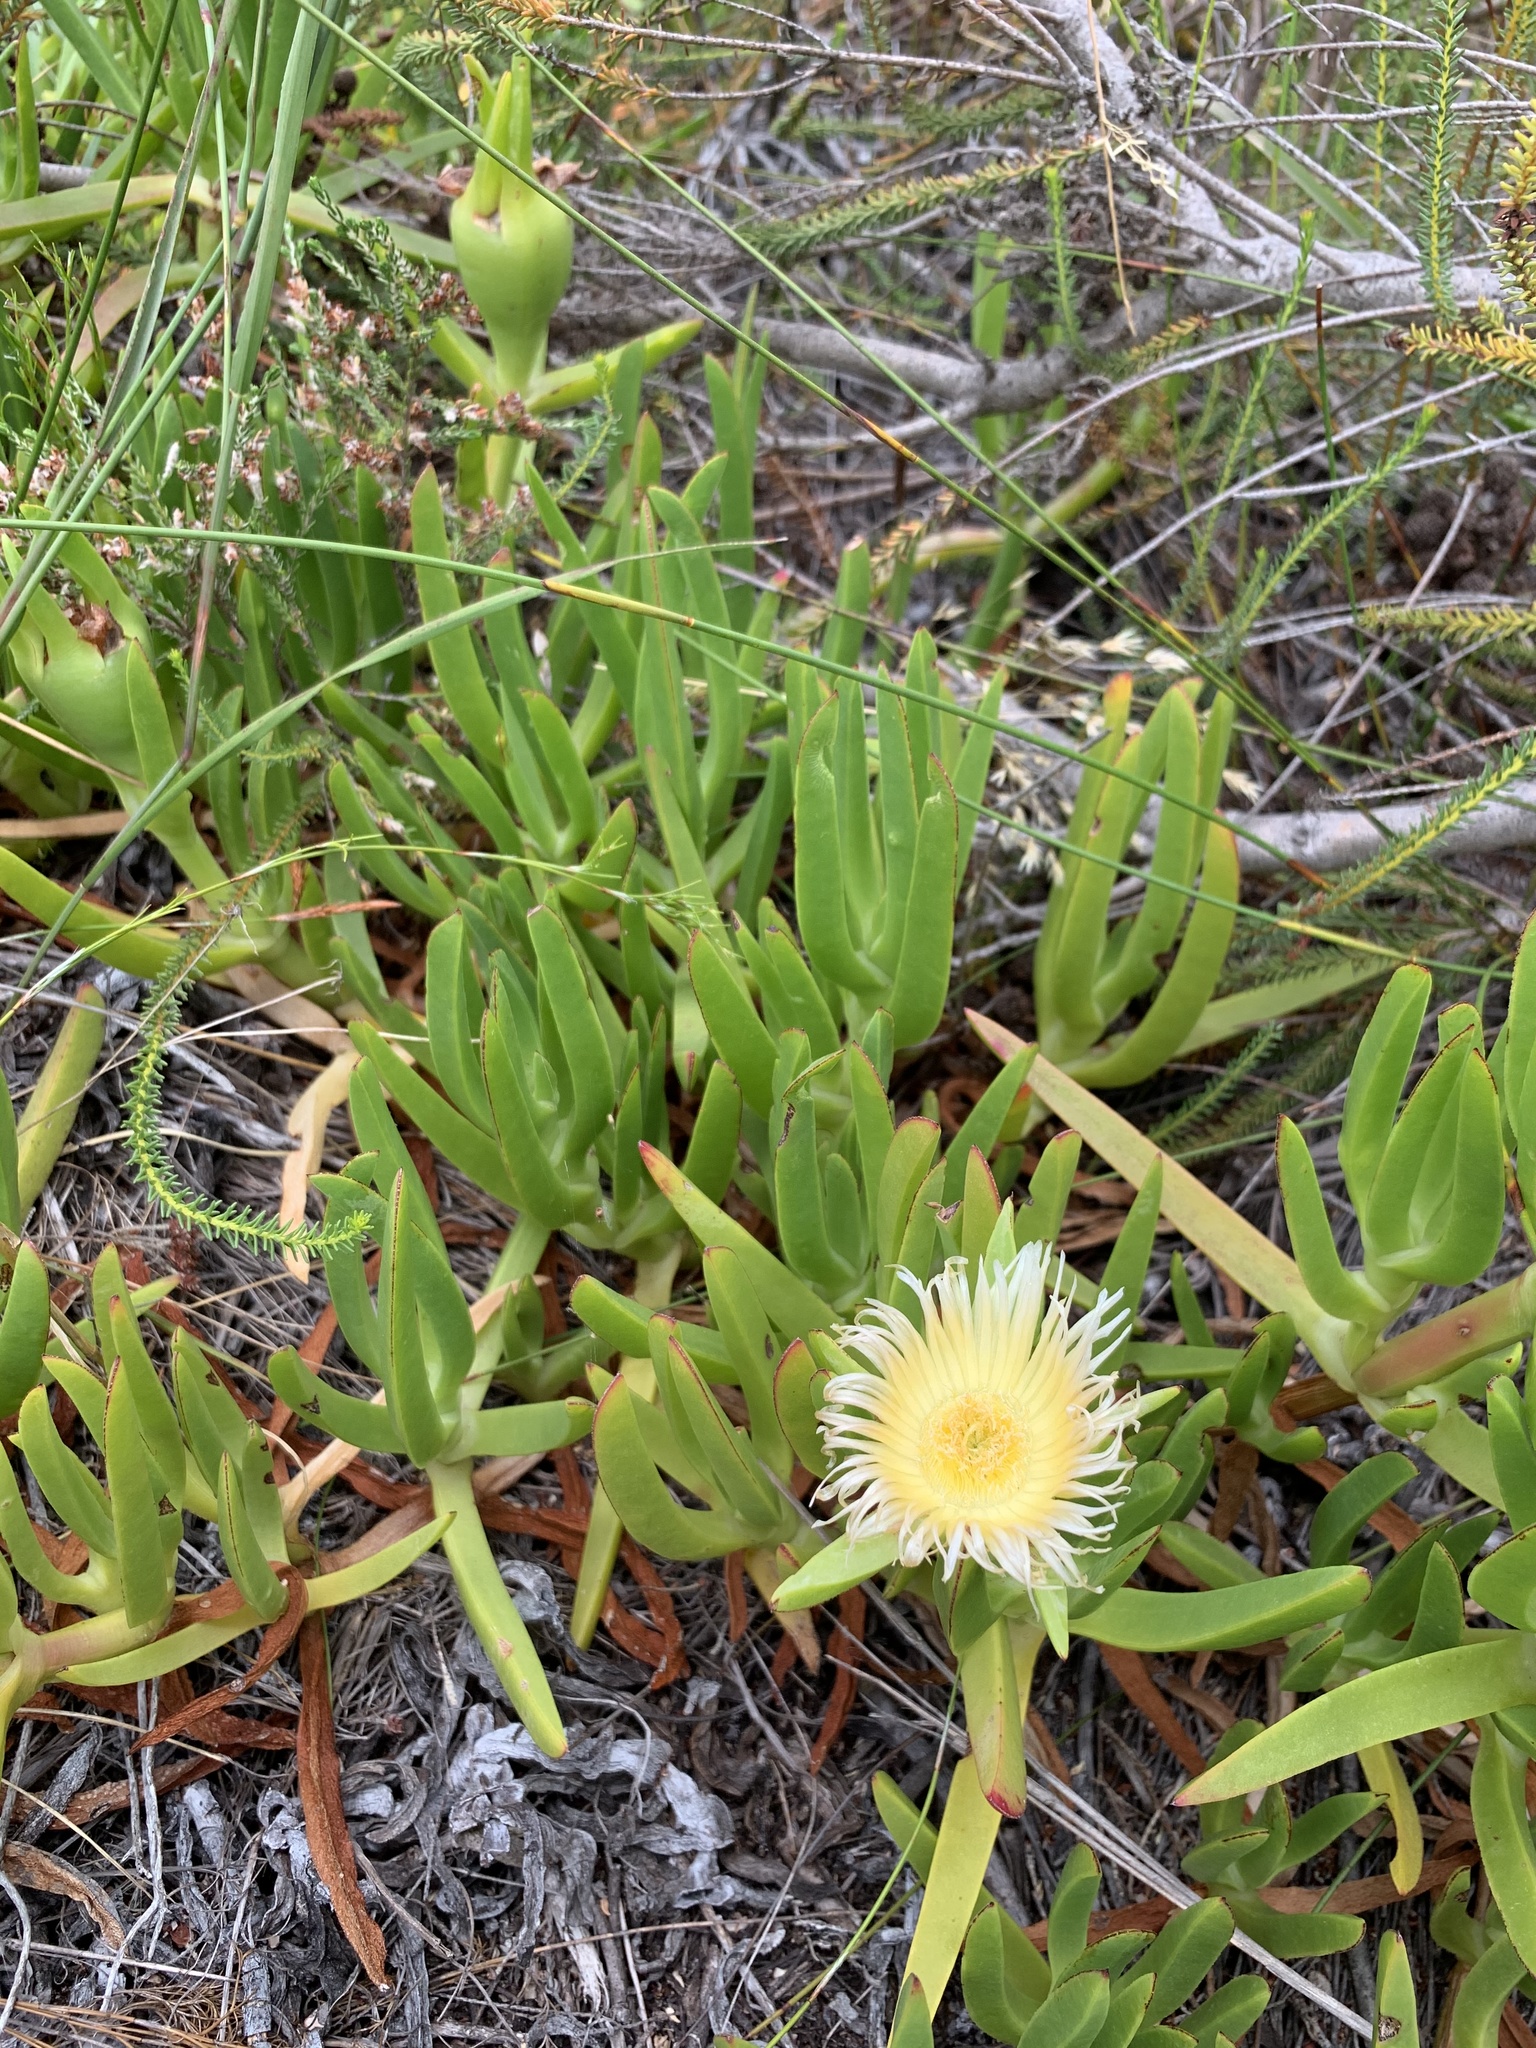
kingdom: Plantae
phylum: Tracheophyta
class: Magnoliopsida
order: Caryophyllales
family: Aizoaceae
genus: Carpobrotus
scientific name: Carpobrotus edulis
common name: Hottentot-fig
